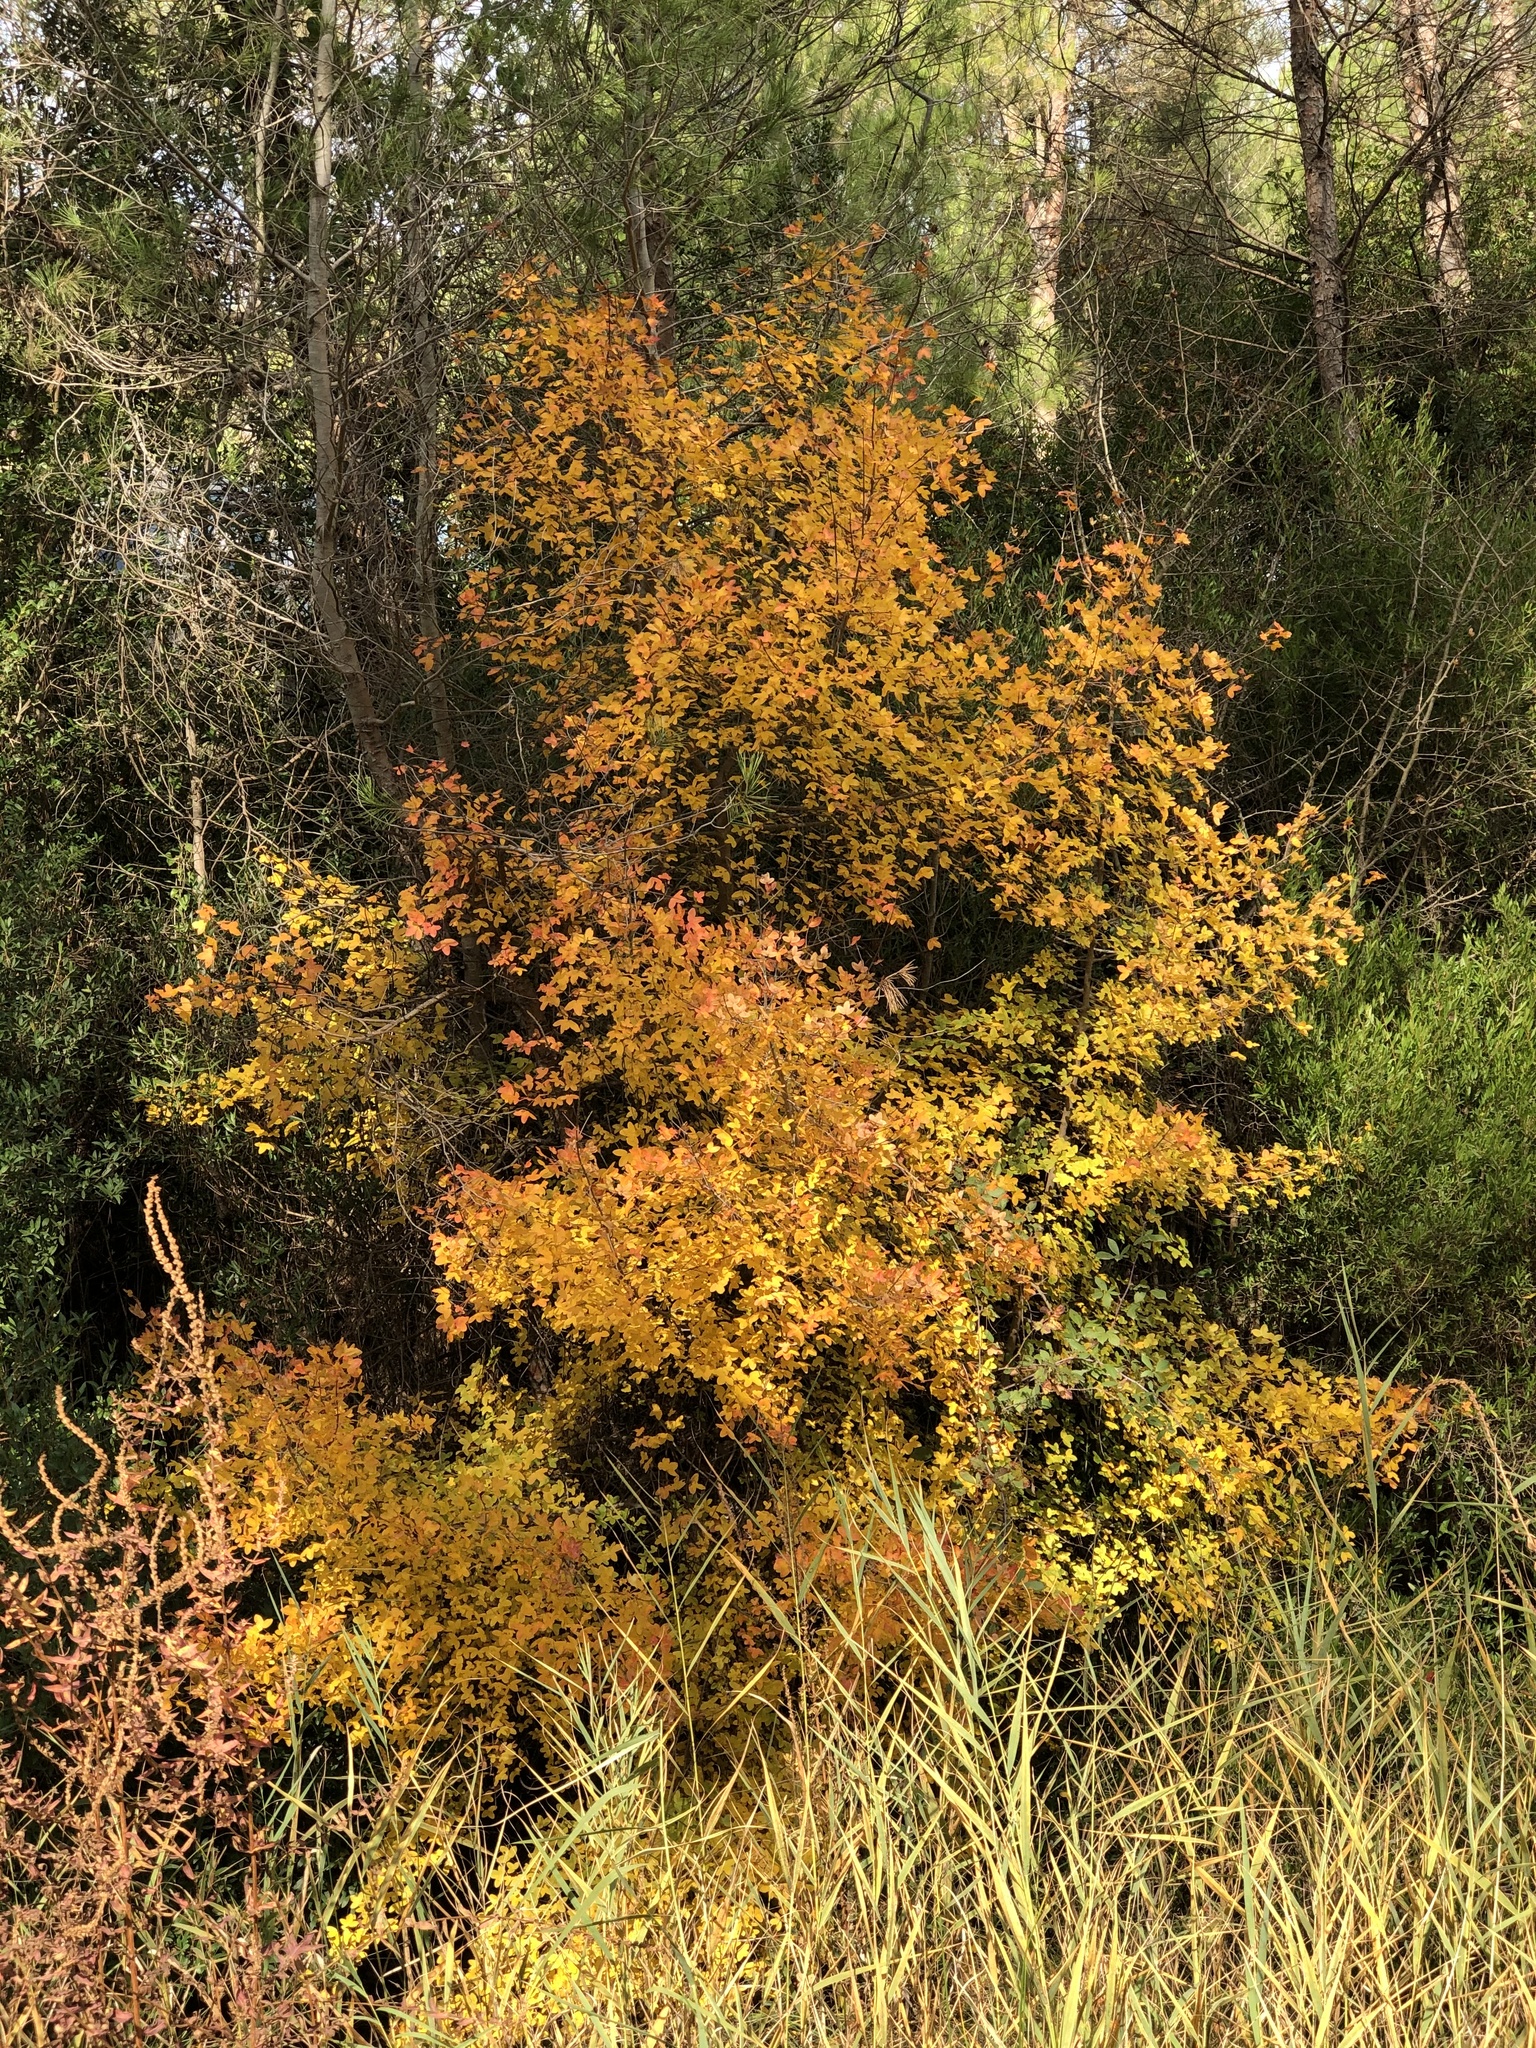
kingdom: Plantae
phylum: Tracheophyta
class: Magnoliopsida
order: Sapindales
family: Sapindaceae
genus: Acer
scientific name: Acer monspessulanum
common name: Montpellier maple
